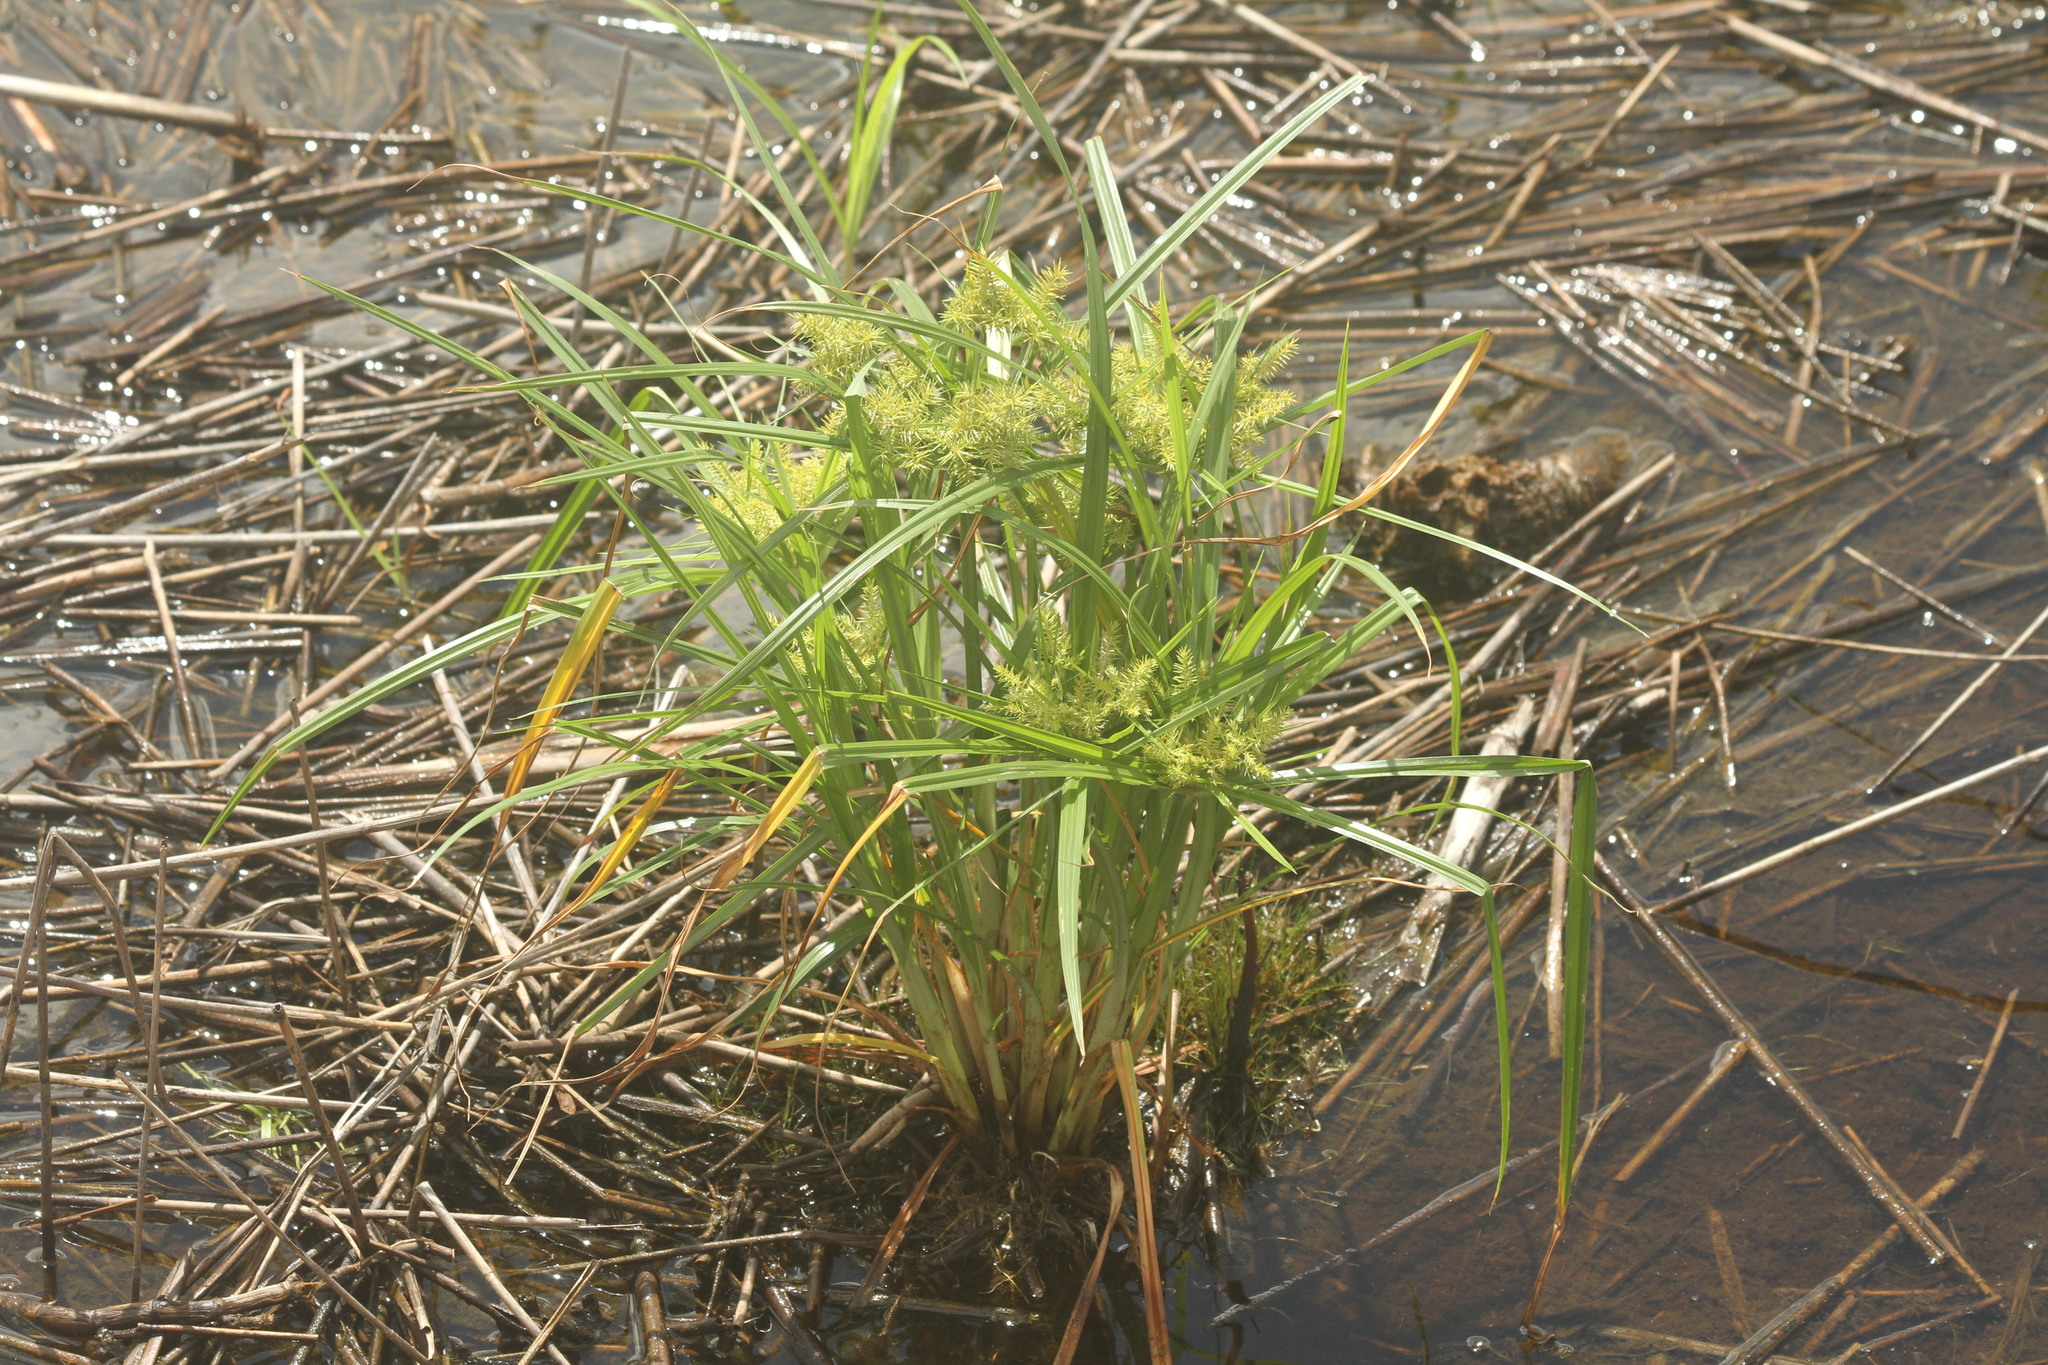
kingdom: Plantae
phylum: Tracheophyta
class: Liliopsida
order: Poales
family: Cyperaceae
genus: Cyperus
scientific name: Cyperus erythrorhizos
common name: Red-root flat sedge
